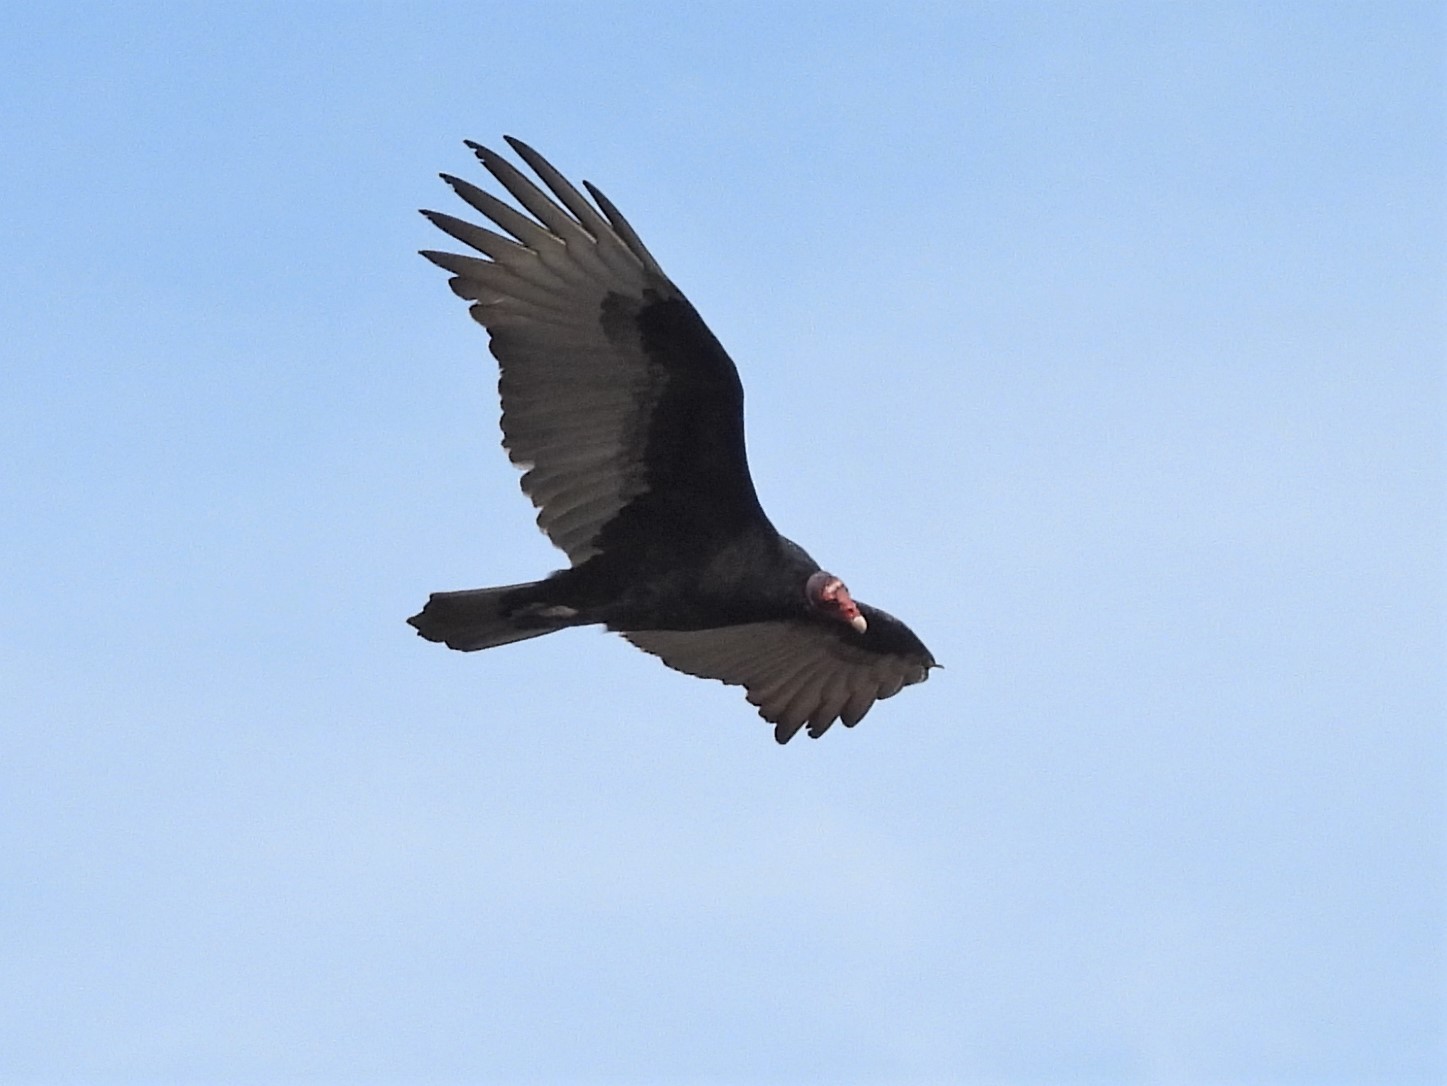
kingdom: Animalia
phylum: Chordata
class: Aves
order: Accipitriformes
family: Cathartidae
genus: Cathartes
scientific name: Cathartes aura
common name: Turkey vulture
